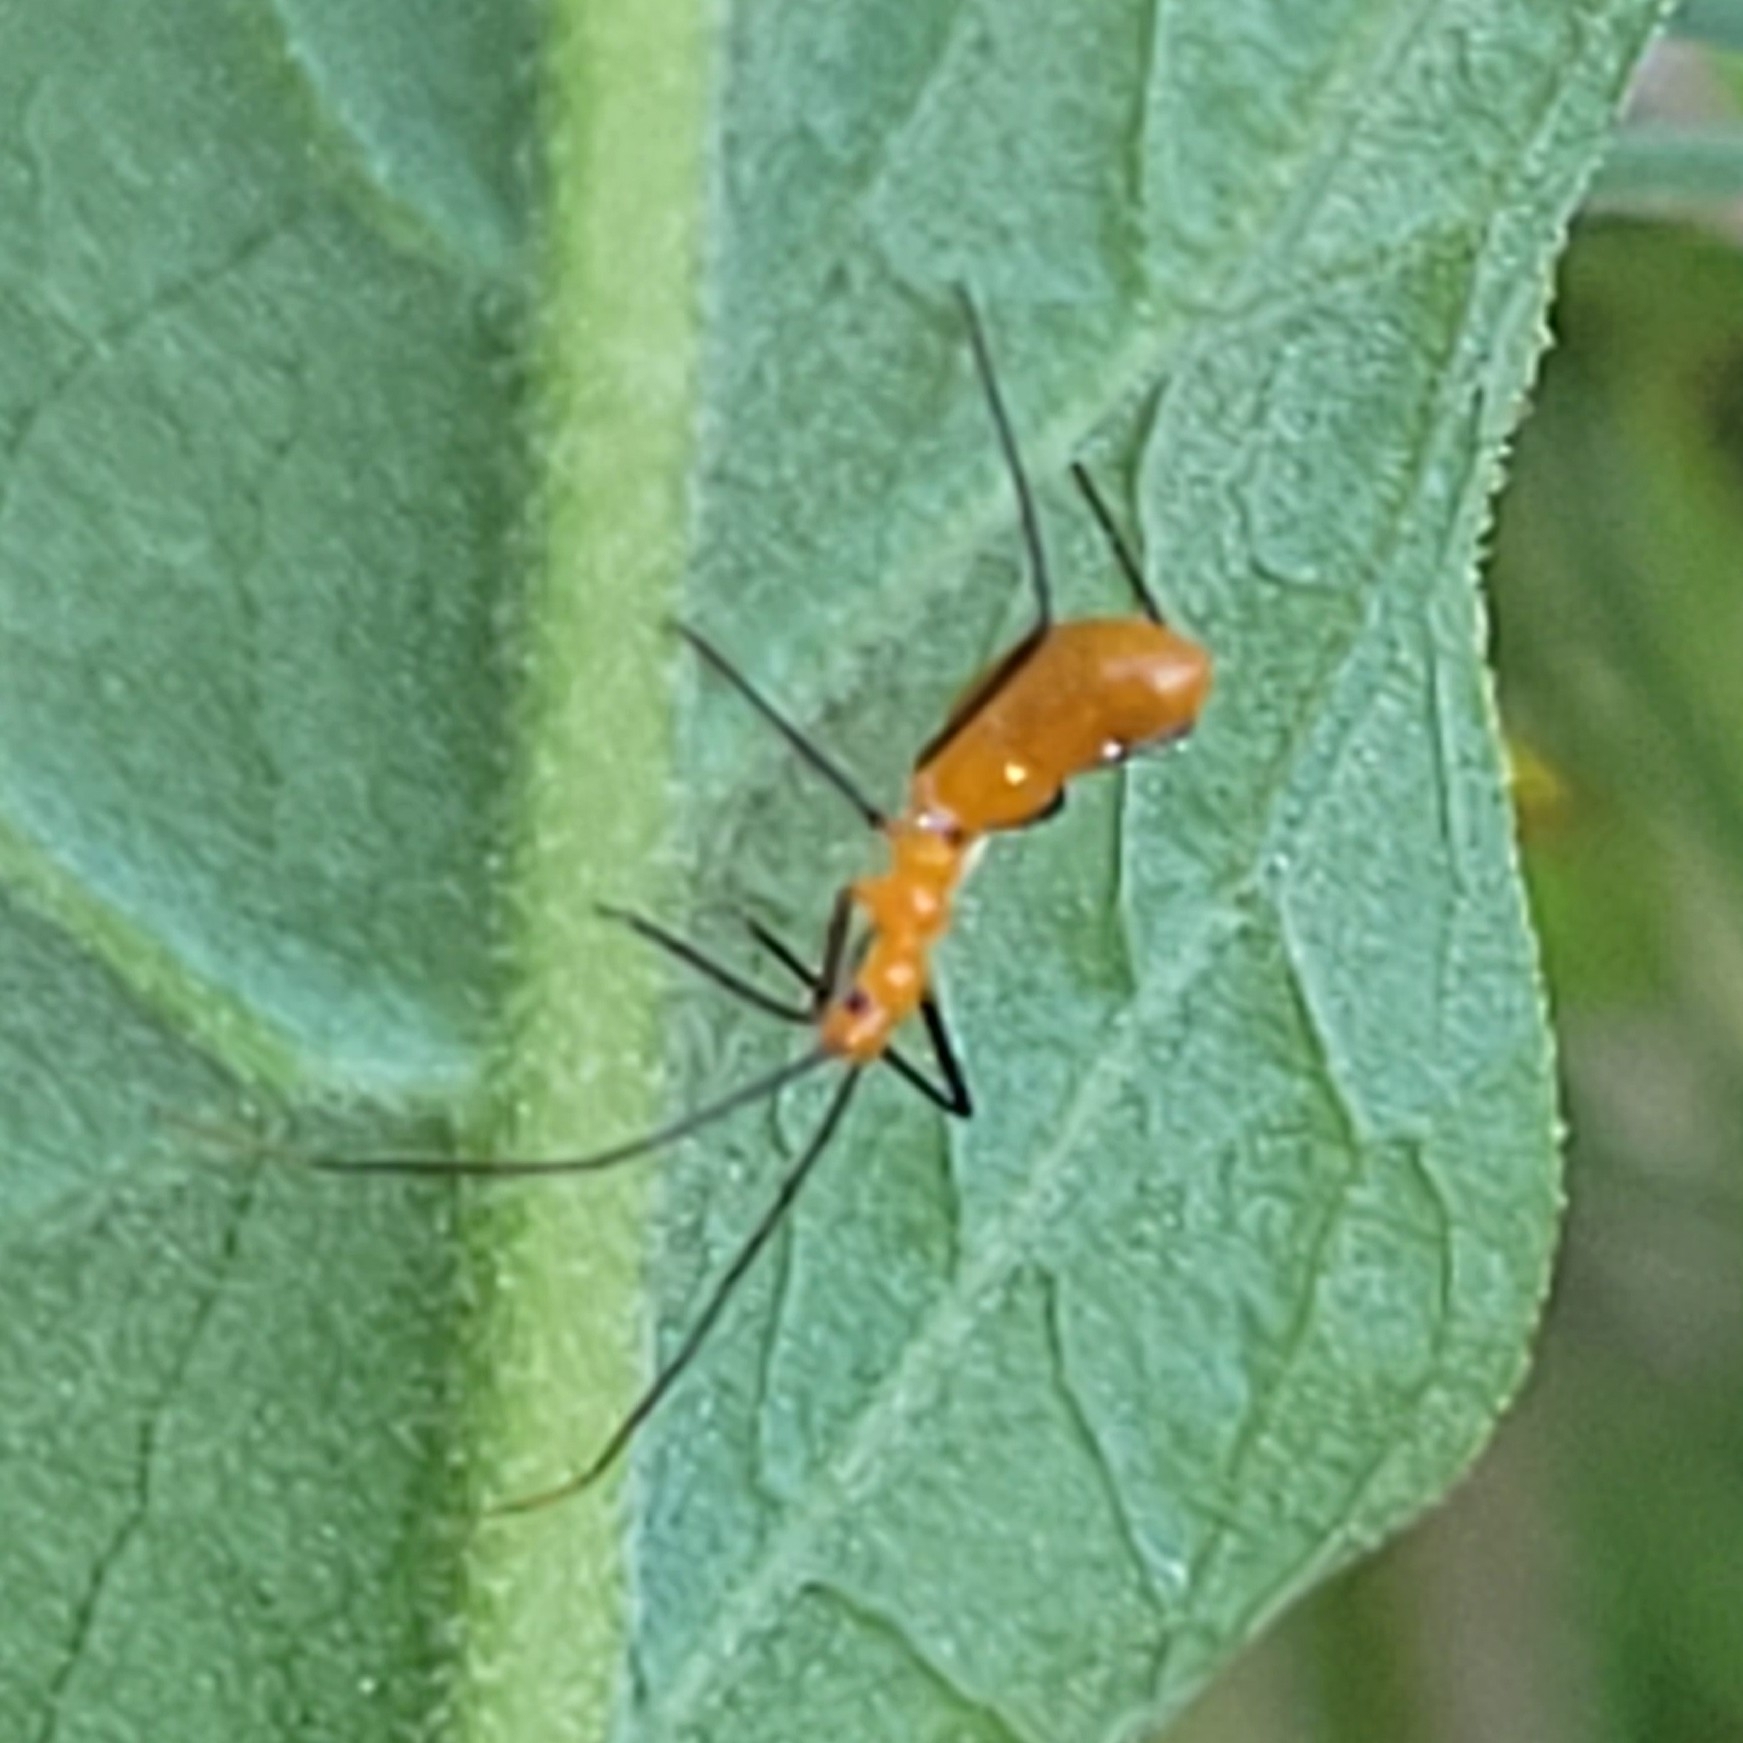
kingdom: Animalia
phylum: Arthropoda
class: Insecta
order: Hemiptera
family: Reduviidae
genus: Zelus
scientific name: Zelus longipes
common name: Milkweed assassin bug
